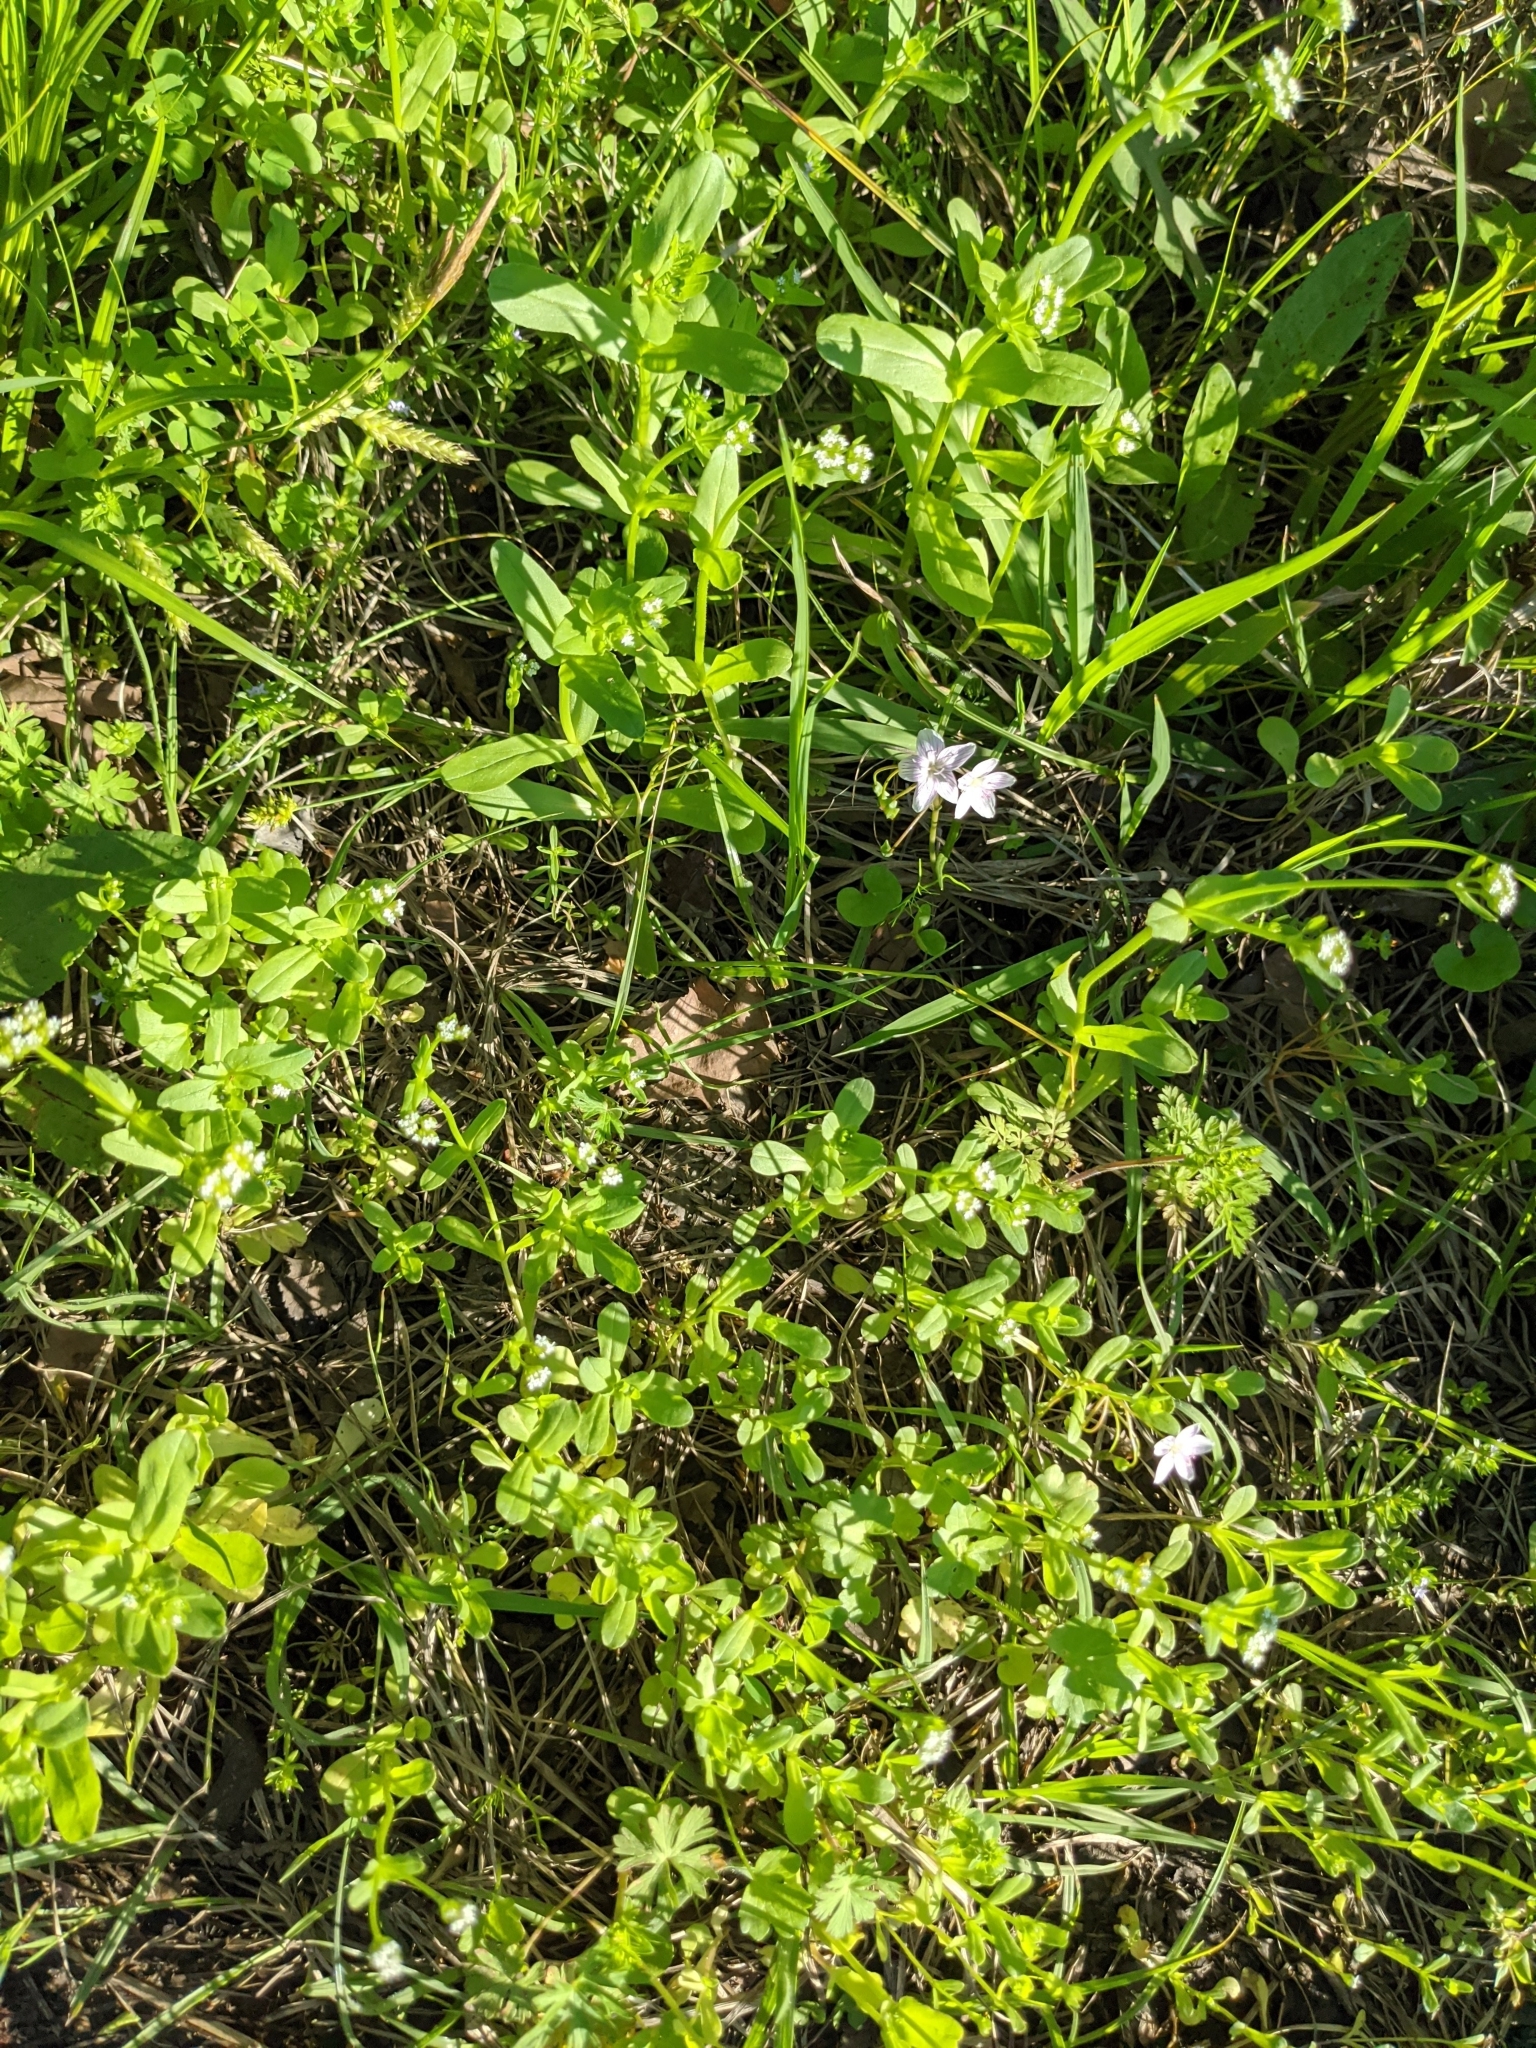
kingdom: Plantae
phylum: Tracheophyta
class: Magnoliopsida
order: Gentianales
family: Rubiaceae
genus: Sherardia
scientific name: Sherardia arvensis
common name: Field madder
